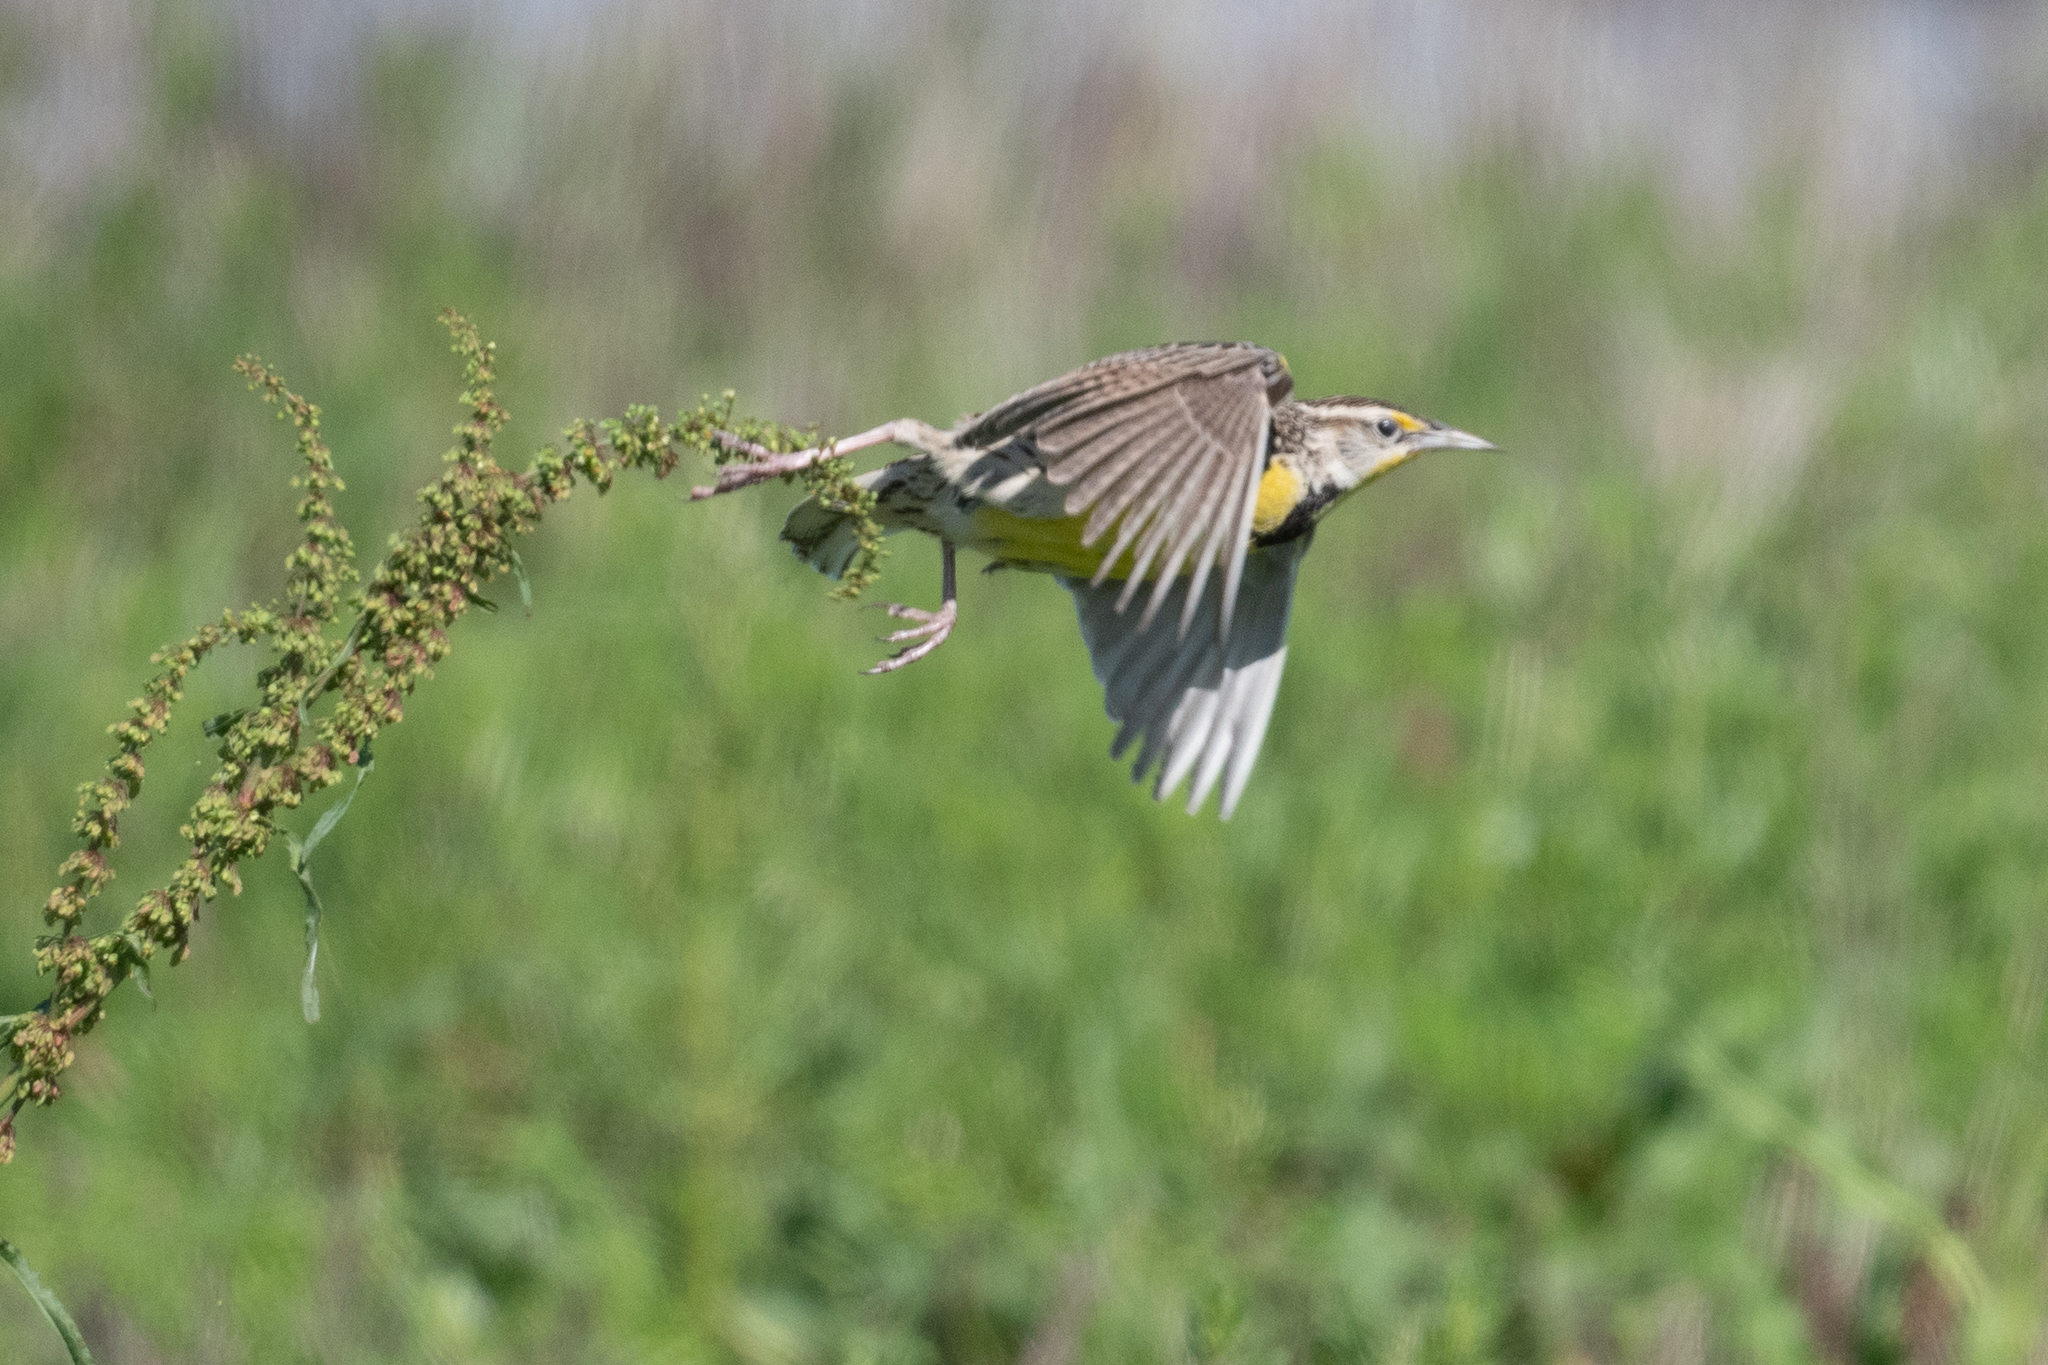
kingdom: Animalia
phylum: Chordata
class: Aves
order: Passeriformes
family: Icteridae
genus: Sturnella
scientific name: Sturnella neglecta
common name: Western meadowlark
